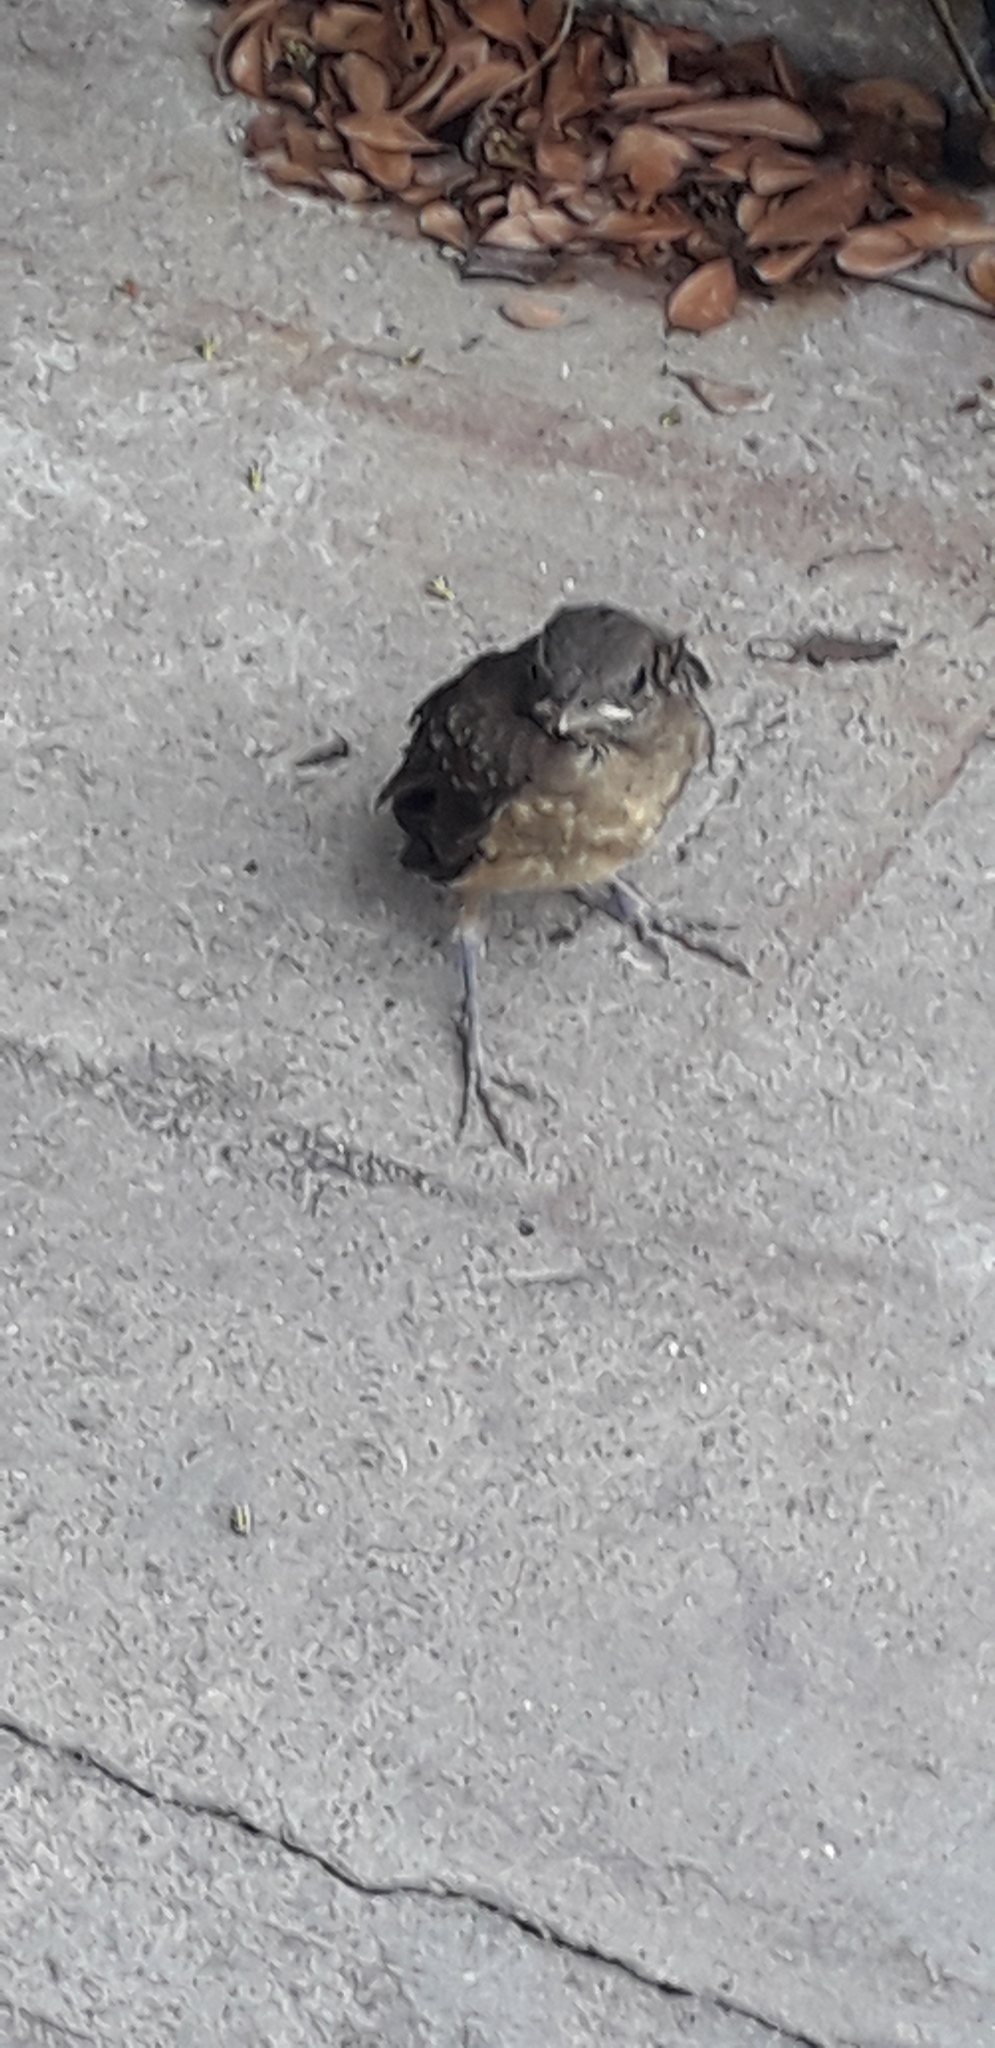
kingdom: Animalia
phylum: Chordata
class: Aves
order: Passeriformes
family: Turdidae
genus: Turdus
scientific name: Turdus grayi
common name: Clay-colored thrush
